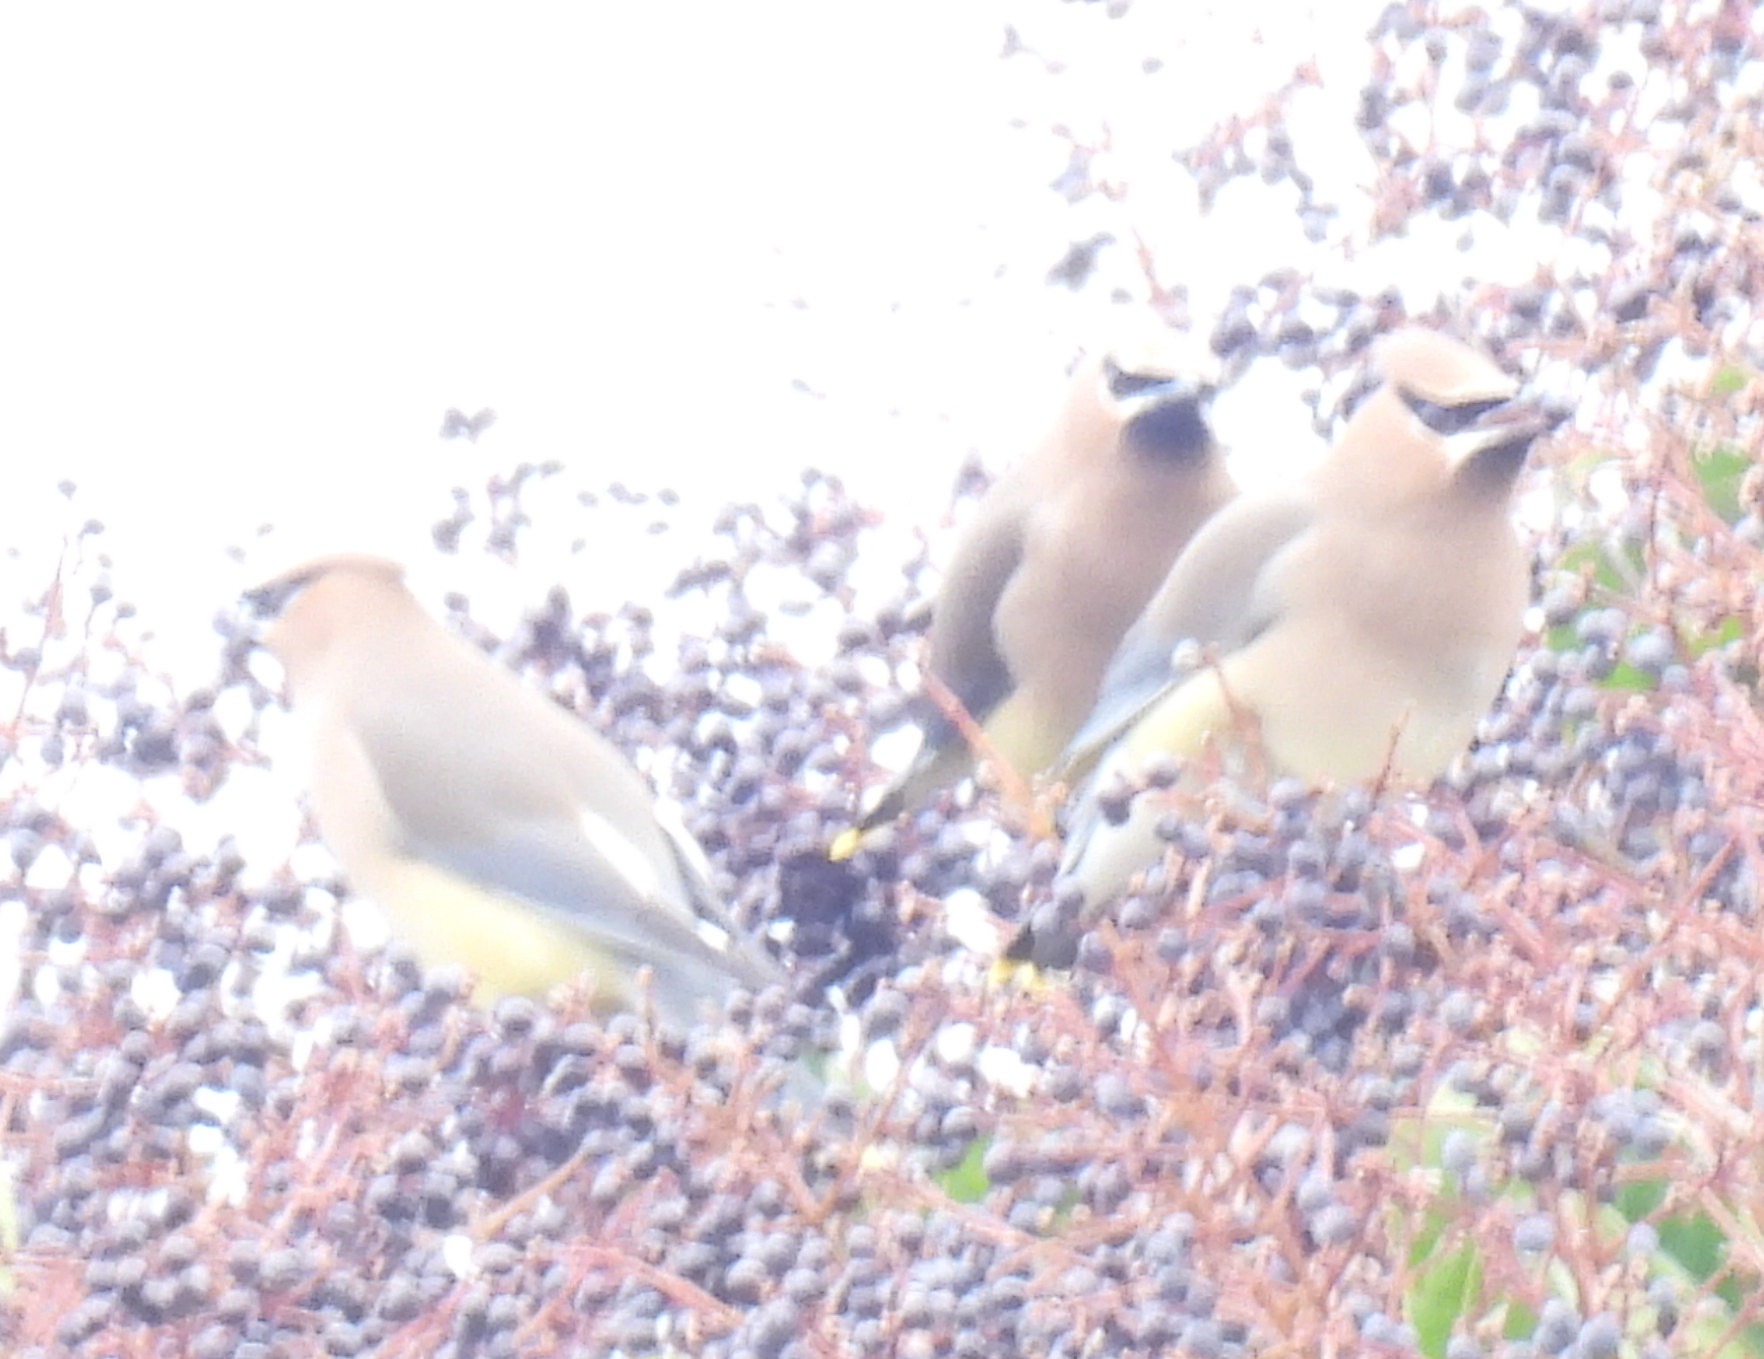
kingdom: Animalia
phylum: Chordata
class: Aves
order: Passeriformes
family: Bombycillidae
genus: Bombycilla
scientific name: Bombycilla cedrorum
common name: Cedar waxwing
